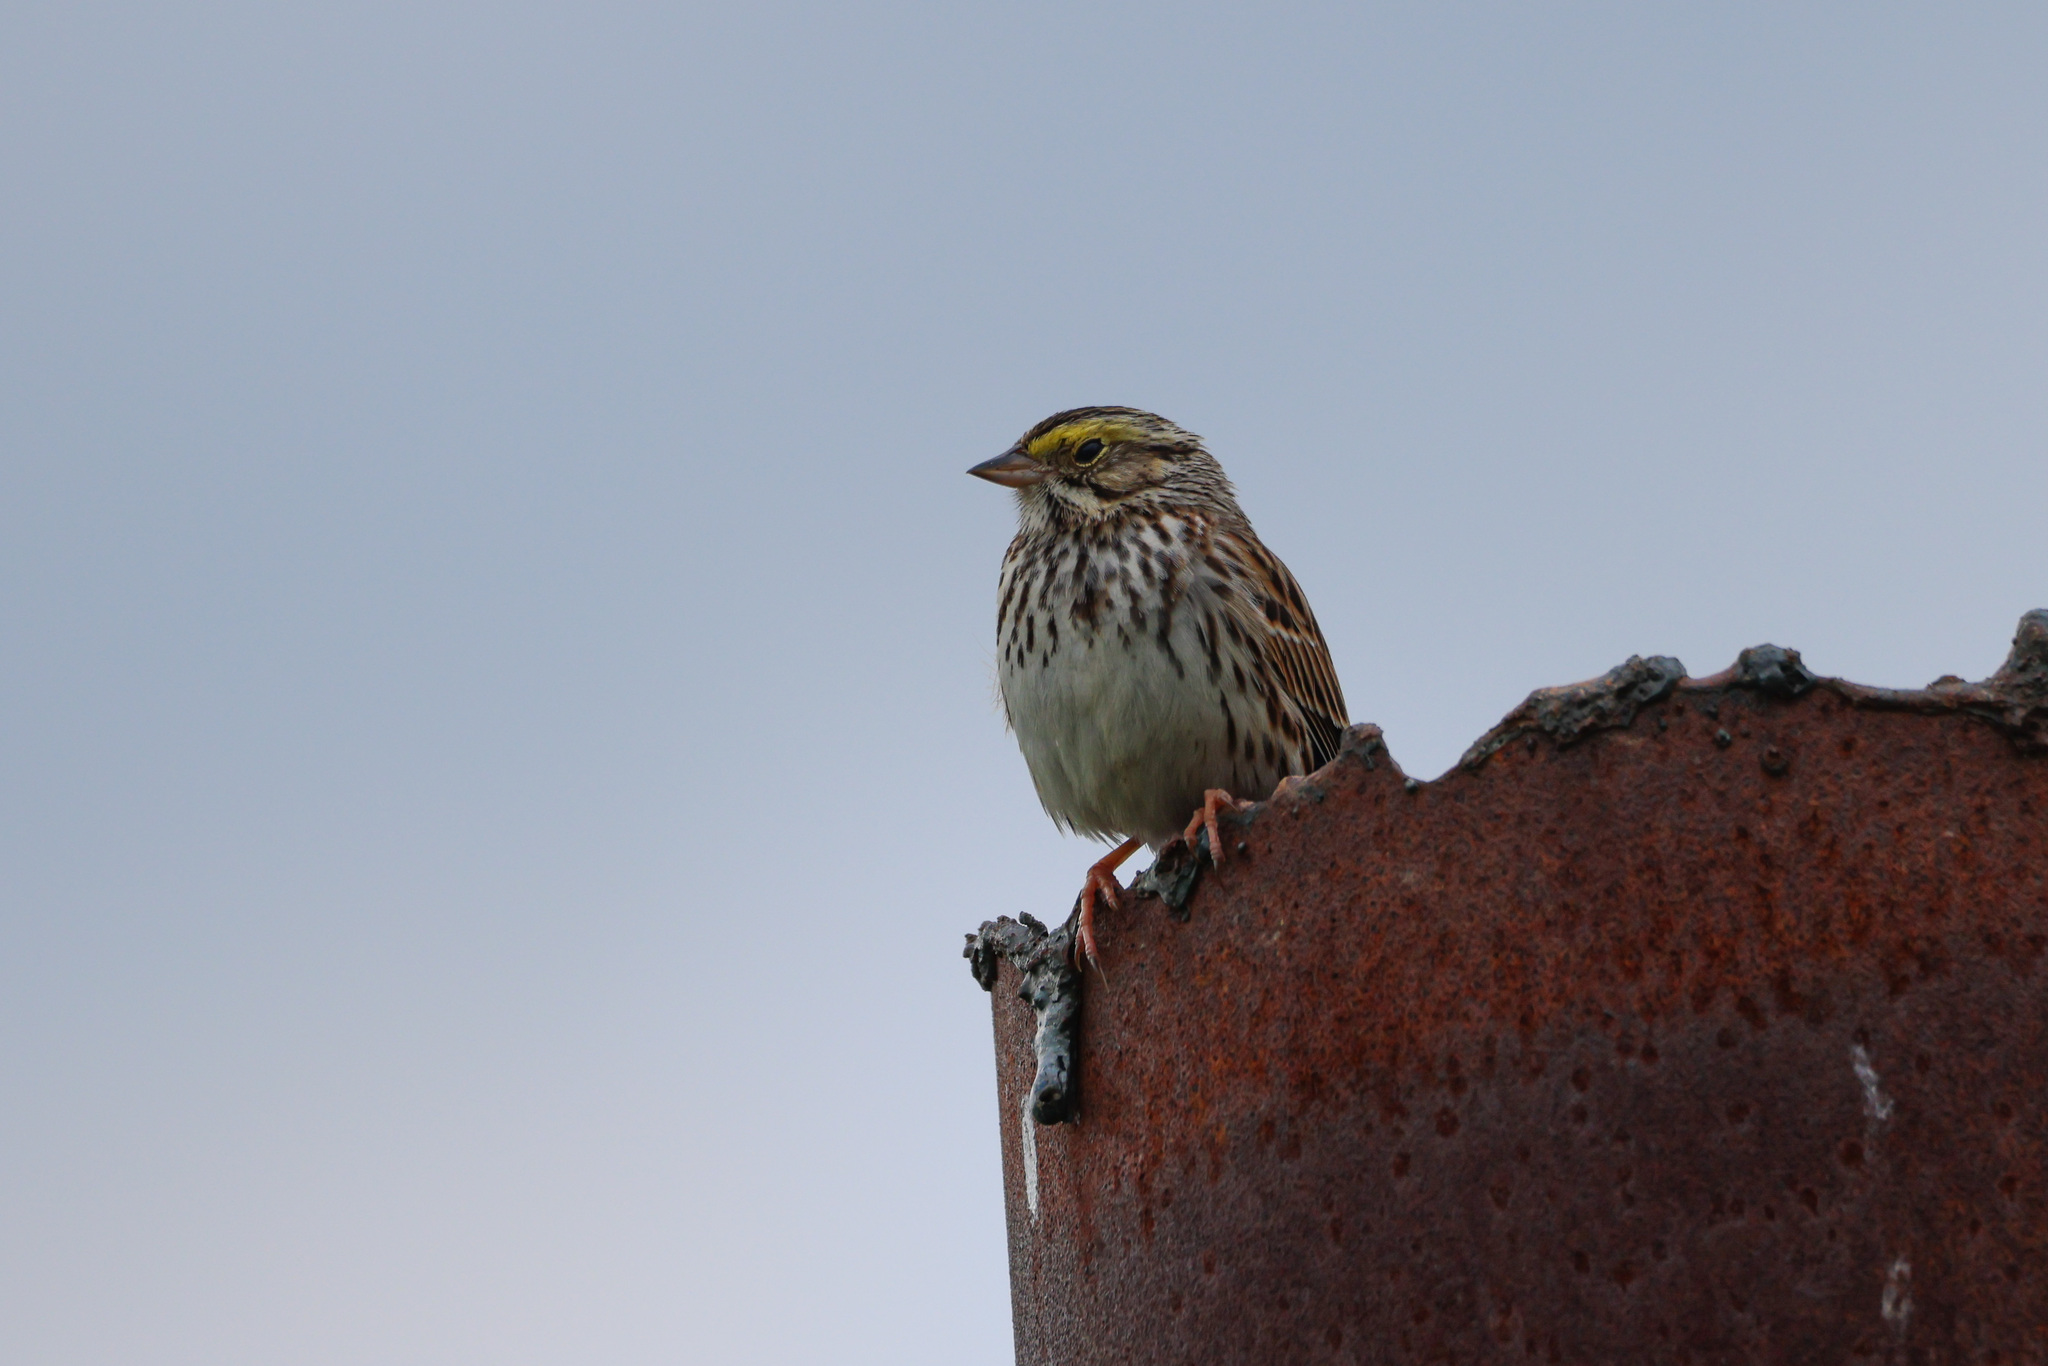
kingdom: Animalia
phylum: Chordata
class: Aves
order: Passeriformes
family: Passerellidae
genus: Passerculus
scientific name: Passerculus sandwichensis
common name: Savannah sparrow
